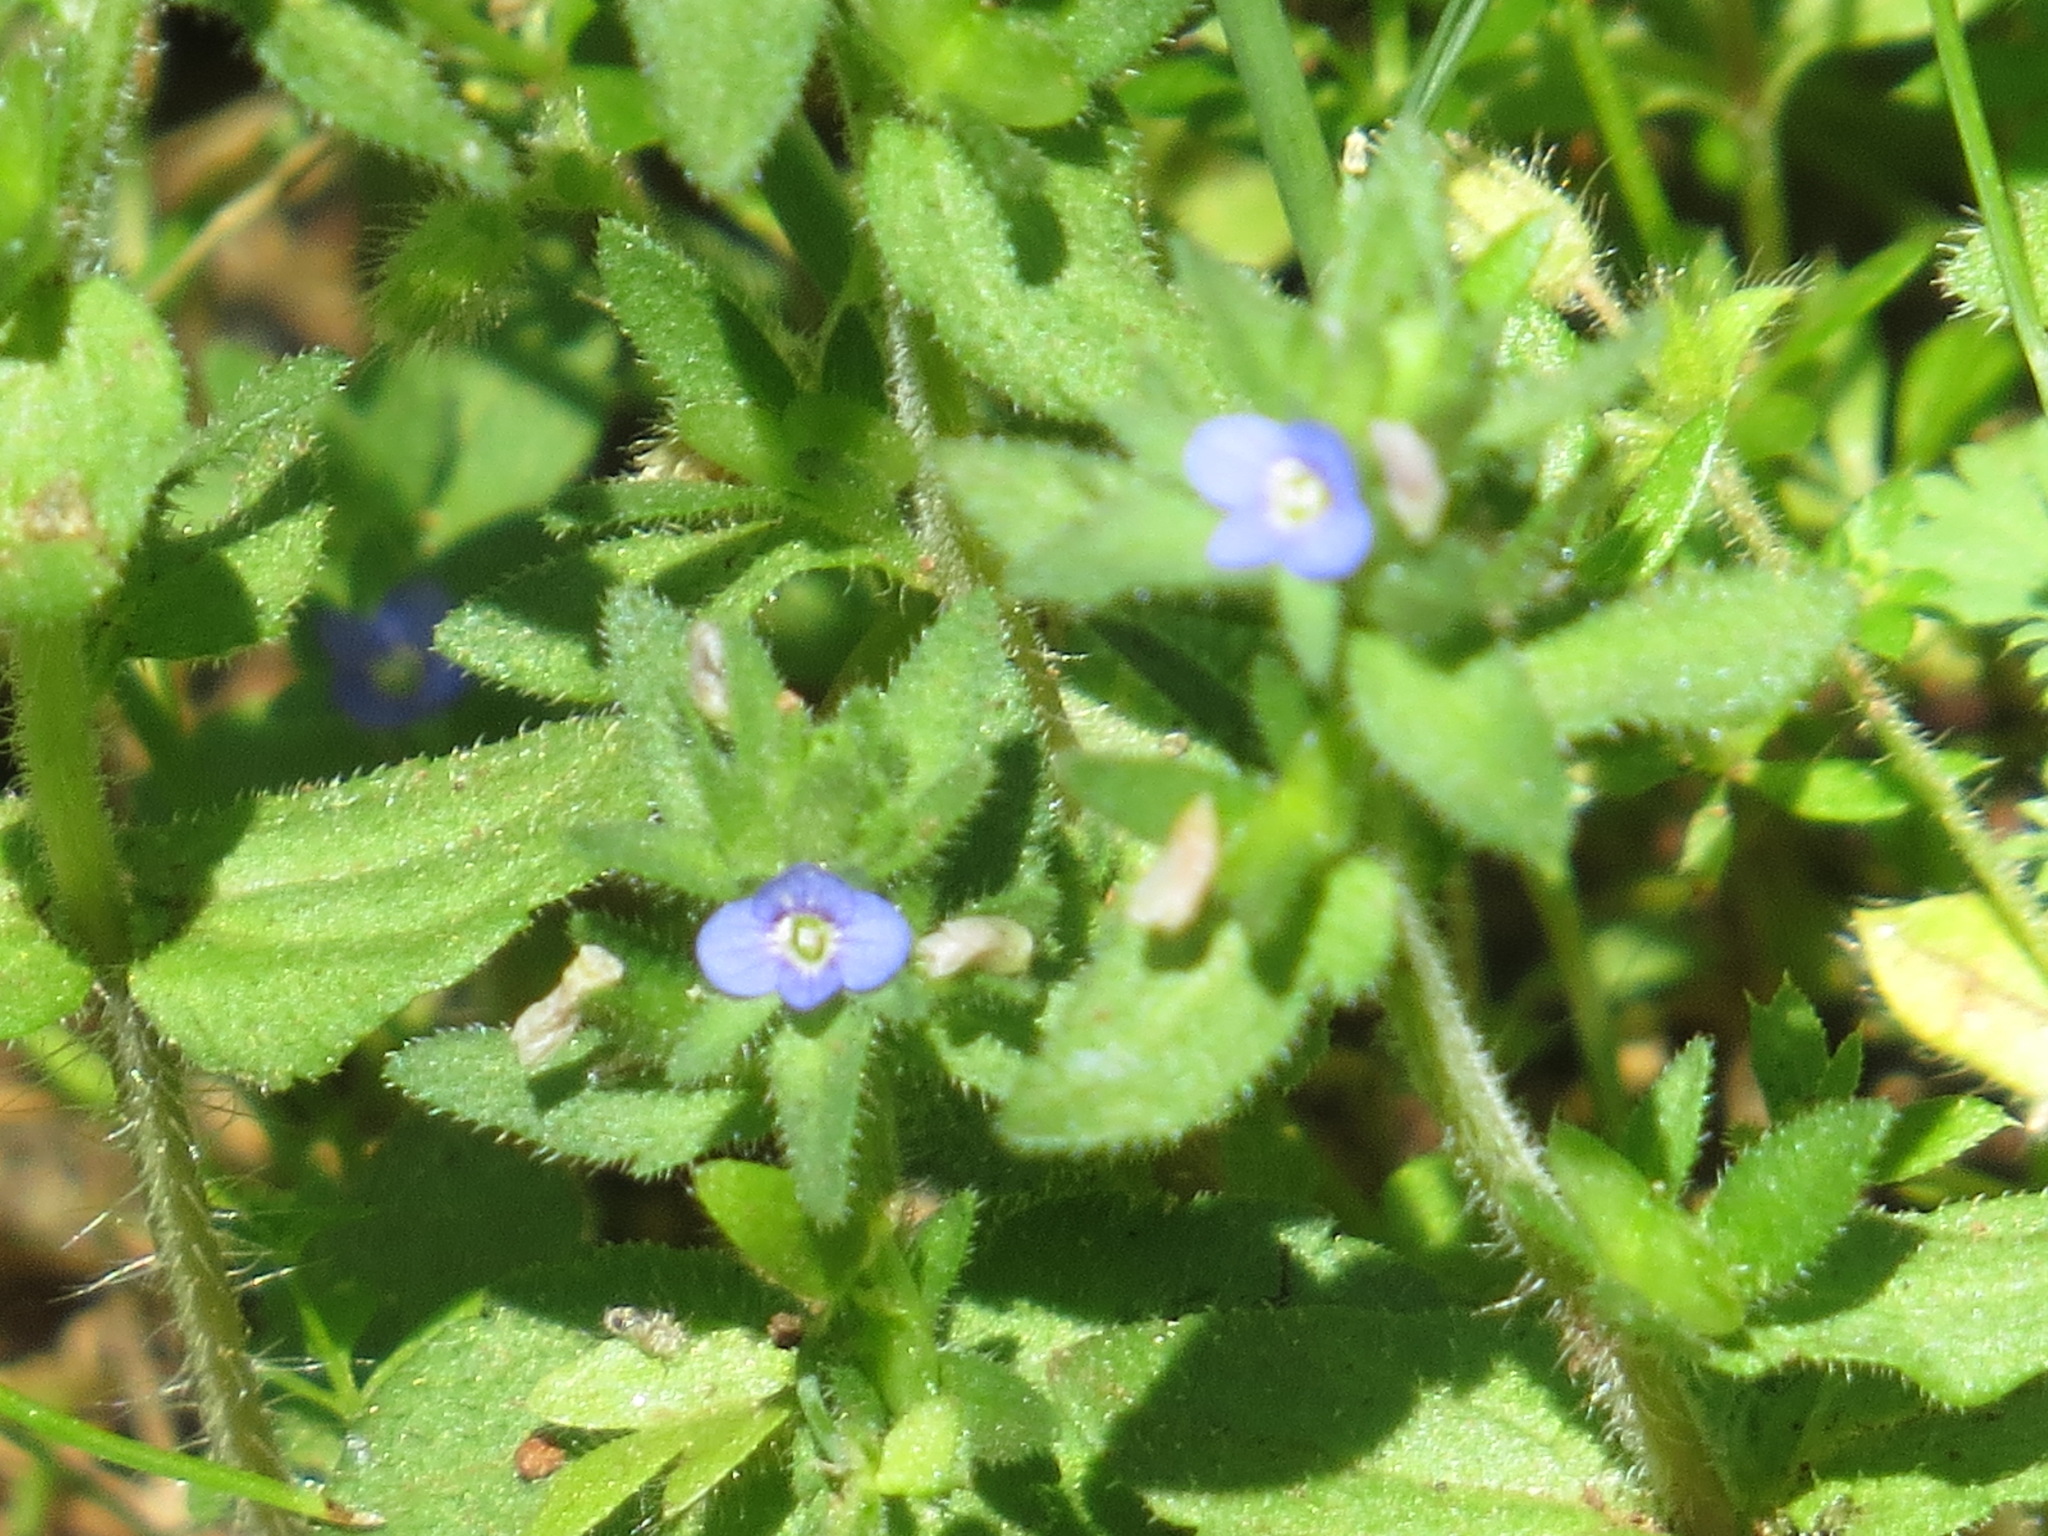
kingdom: Plantae
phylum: Tracheophyta
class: Magnoliopsida
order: Lamiales
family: Plantaginaceae
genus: Veronica
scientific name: Veronica arvensis
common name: Corn speedwell
